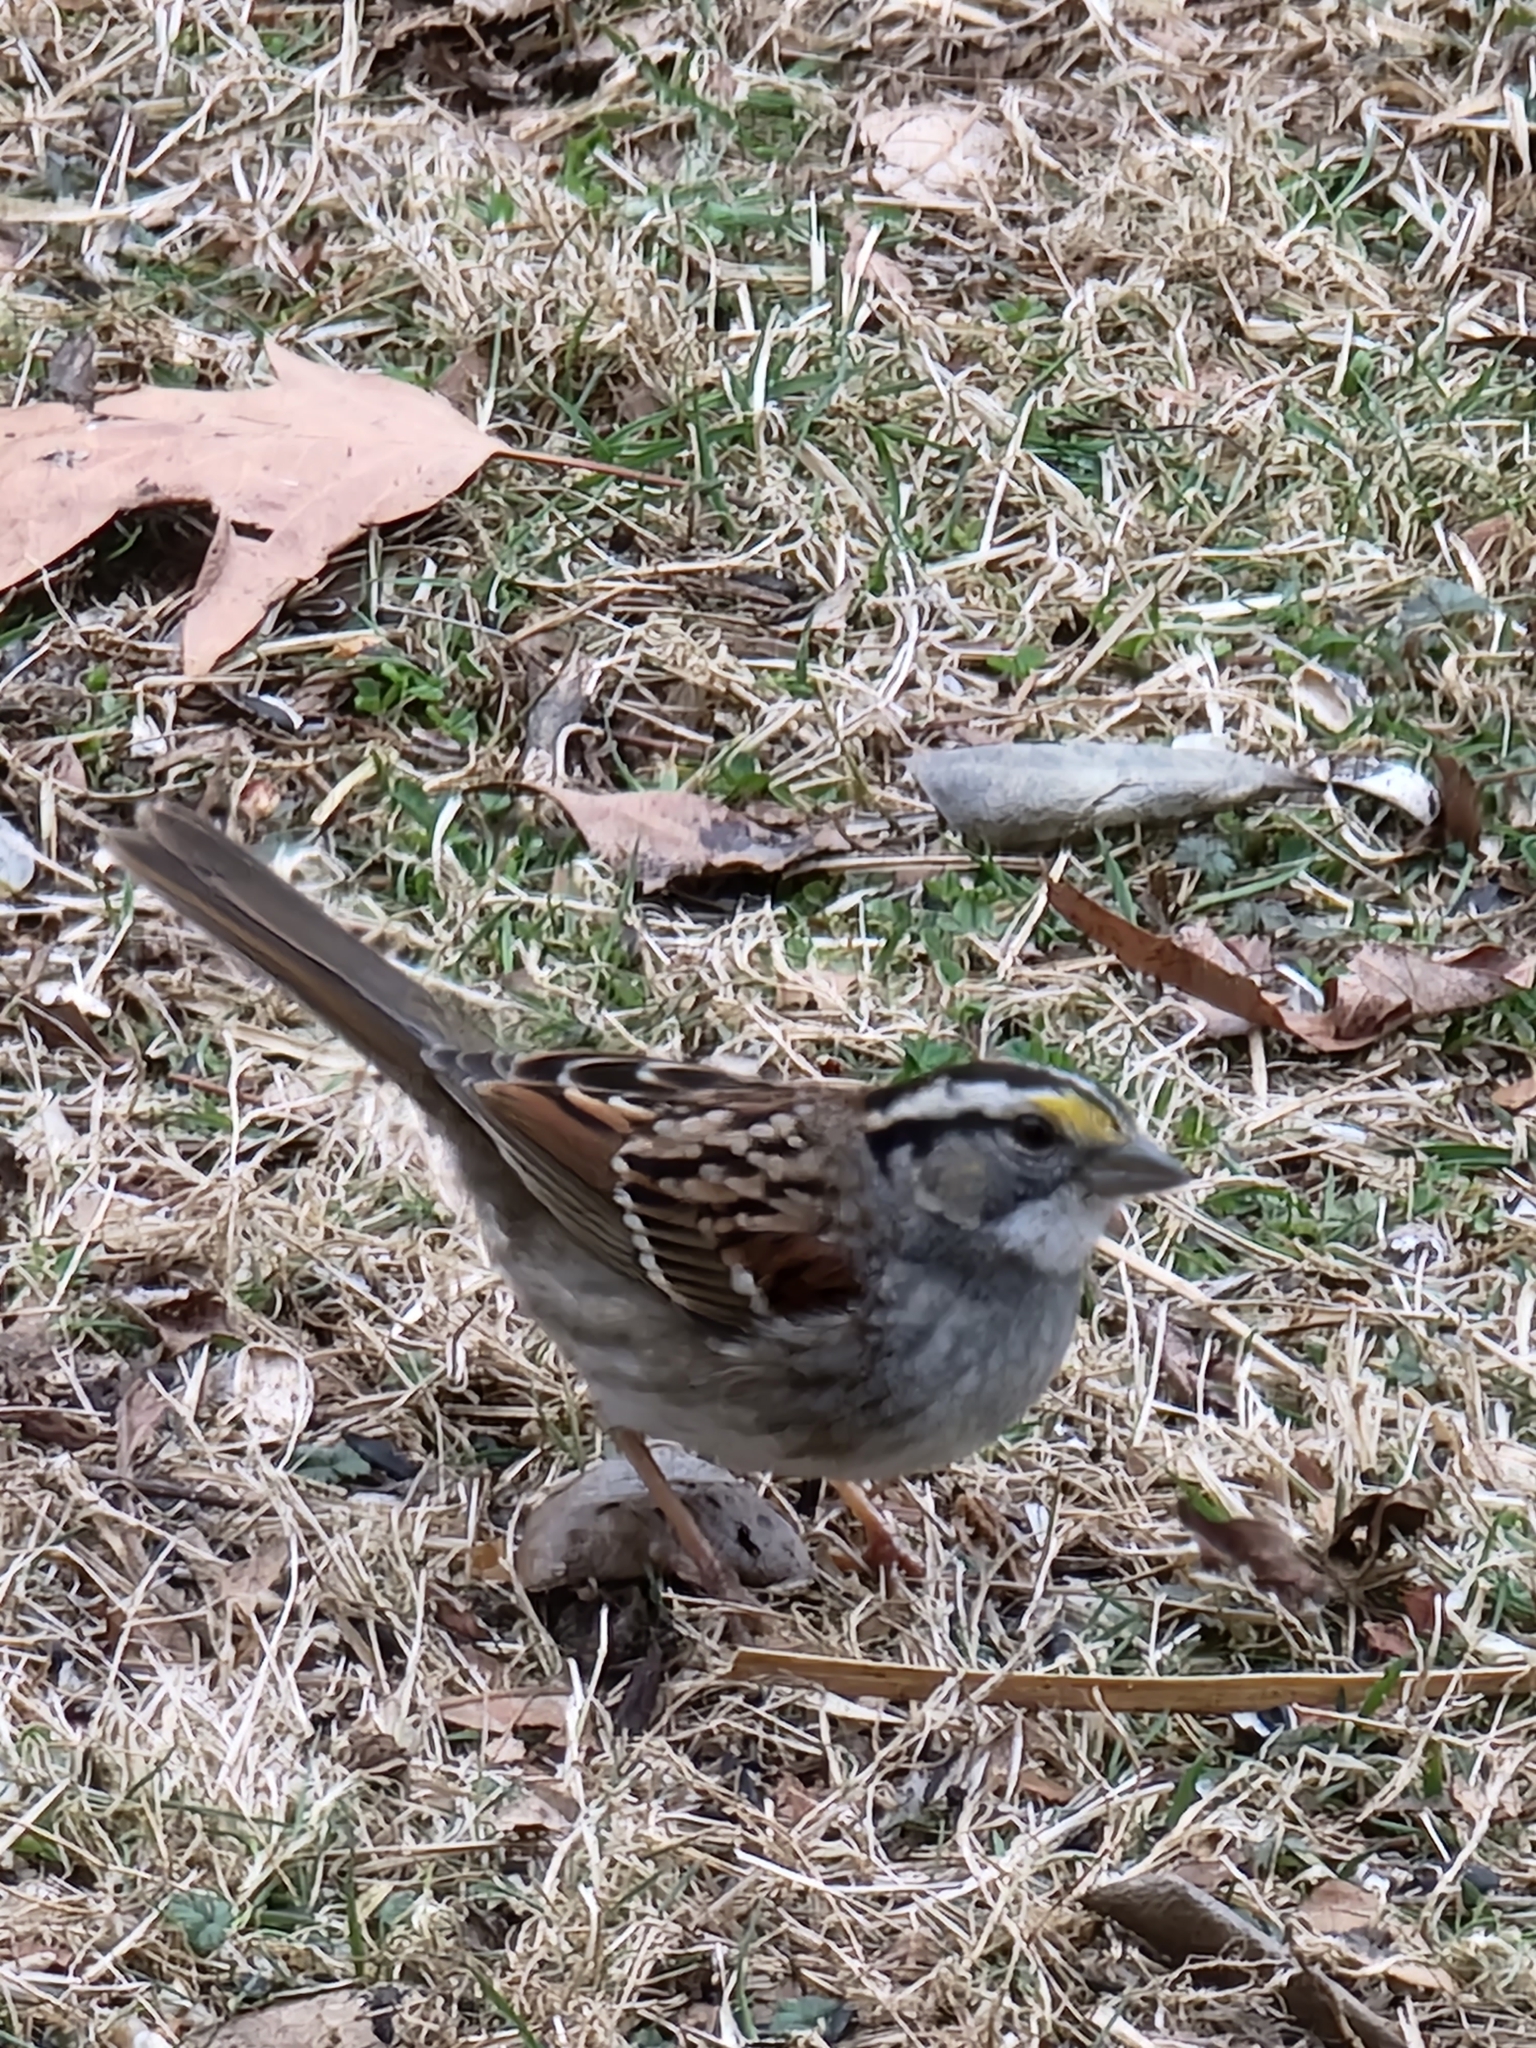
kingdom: Animalia
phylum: Chordata
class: Aves
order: Passeriformes
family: Passerellidae
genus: Zonotrichia
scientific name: Zonotrichia albicollis
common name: White-throated sparrow
